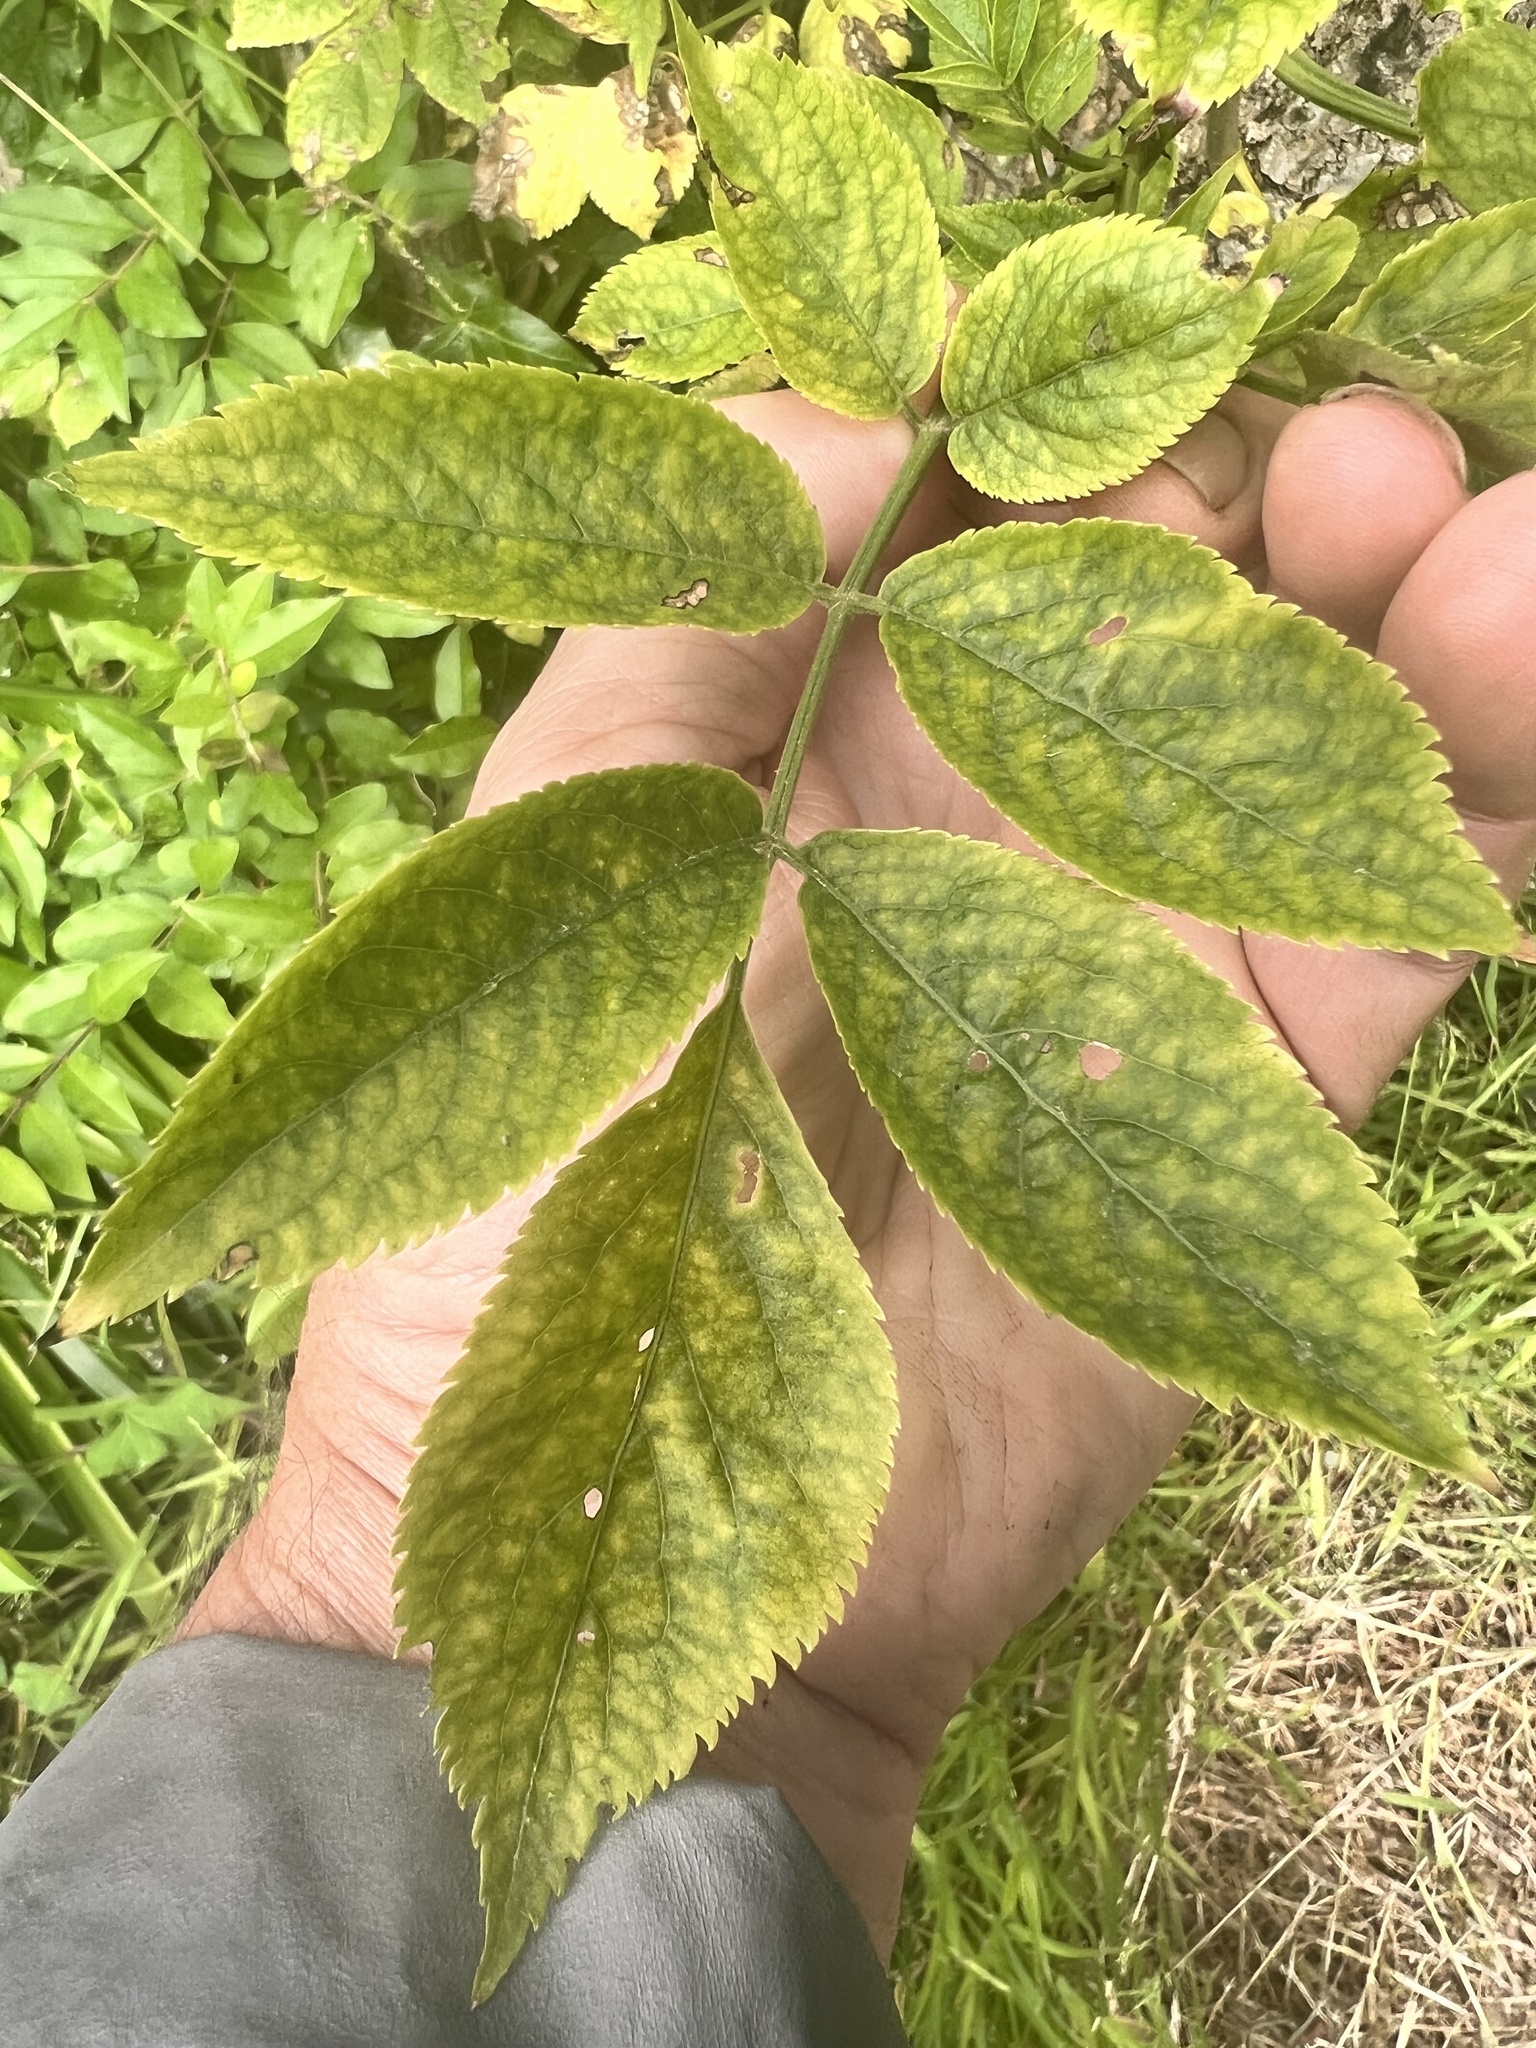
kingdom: Plantae
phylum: Tracheophyta
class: Magnoliopsida
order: Dipsacales
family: Viburnaceae
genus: Sambucus
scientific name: Sambucus nigra
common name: Elder
